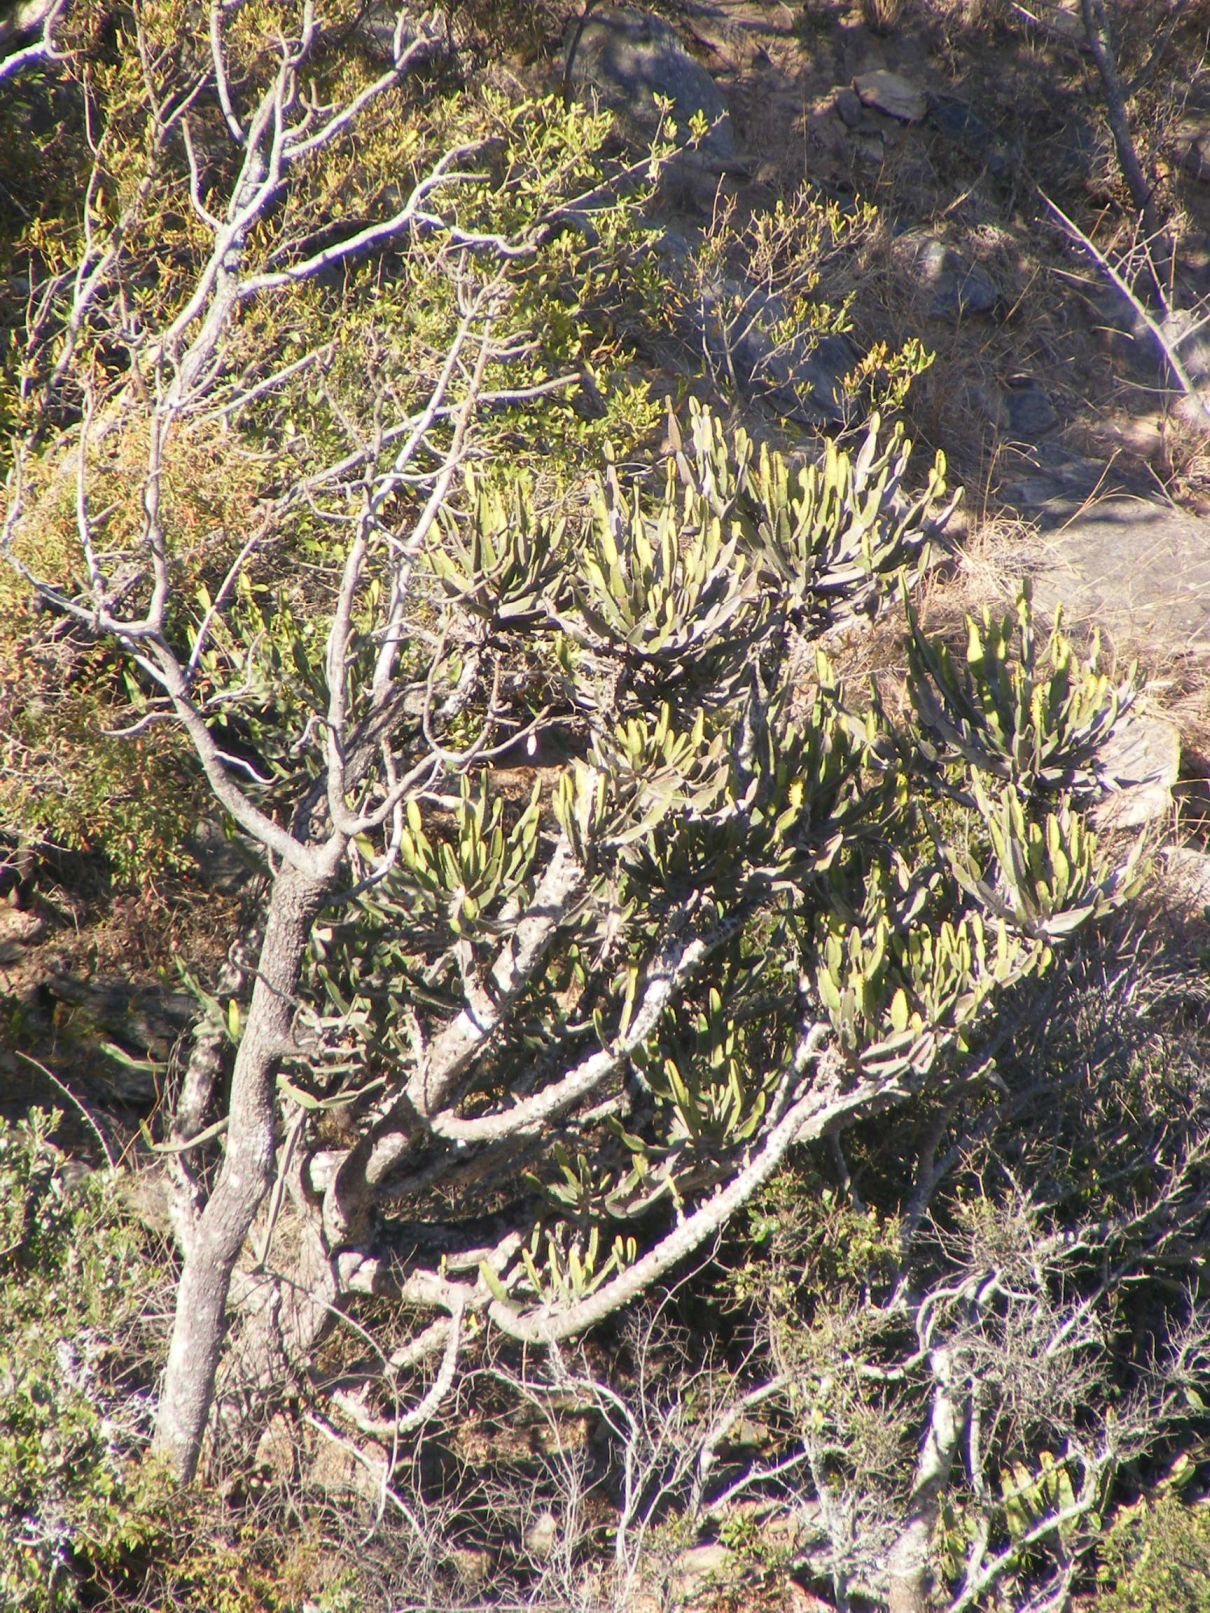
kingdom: Plantae
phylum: Tracheophyta
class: Magnoliopsida
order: Malpighiales
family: Euphorbiaceae
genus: Euphorbia
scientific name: Euphorbia triangularis
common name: Chandelier tree
